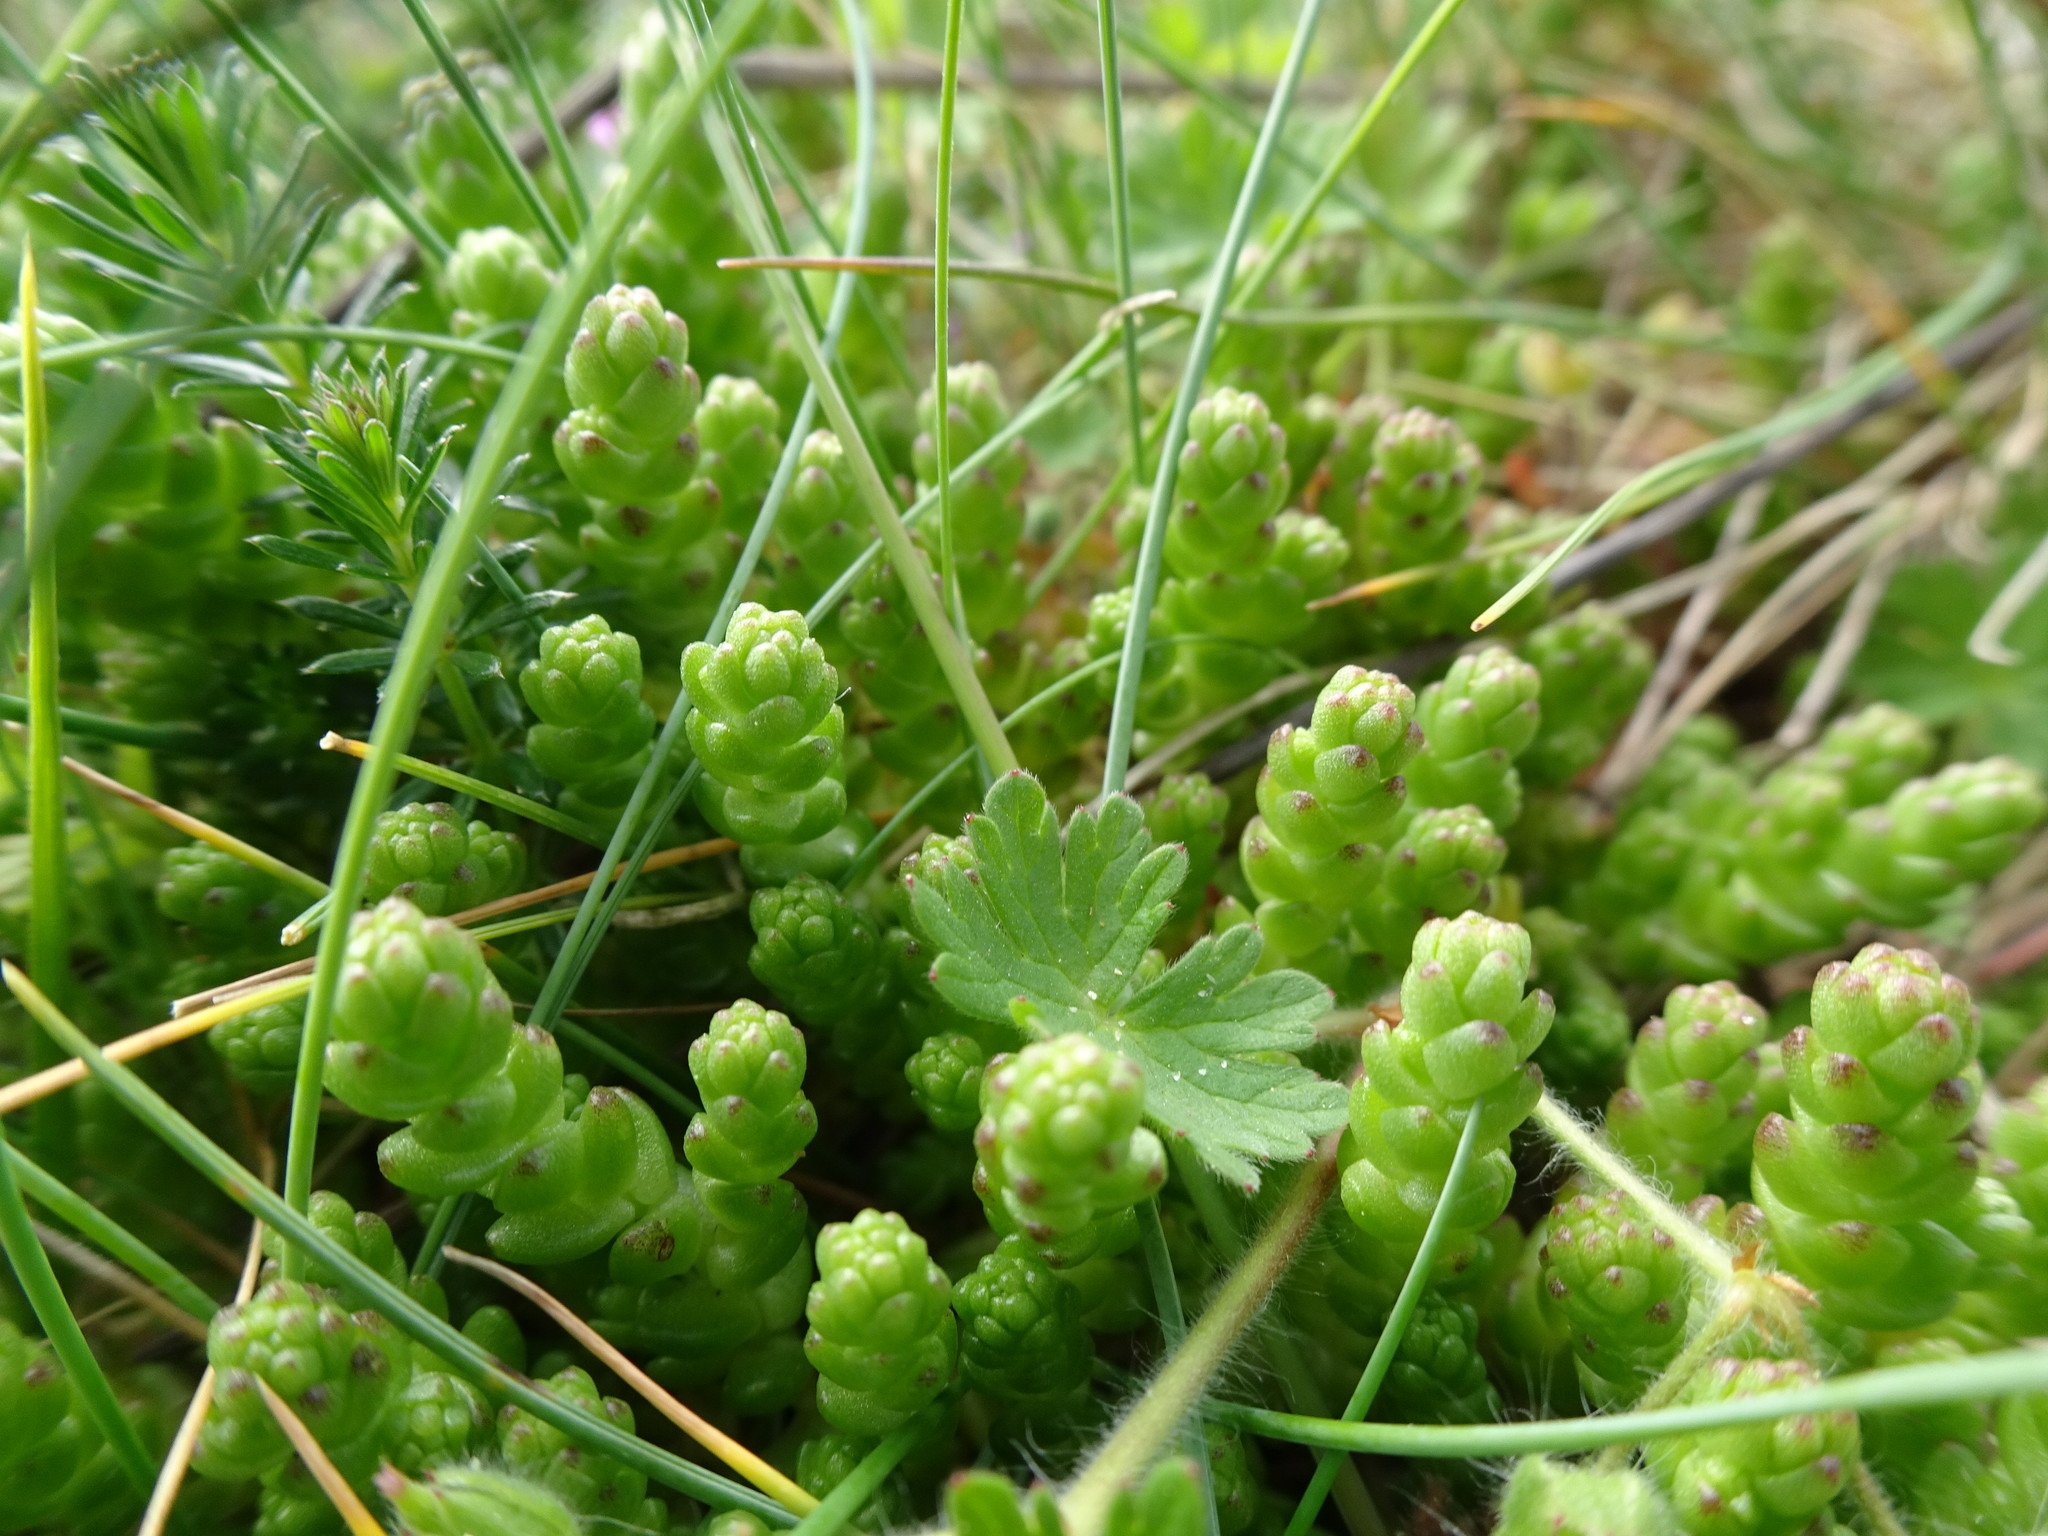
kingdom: Plantae
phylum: Tracheophyta
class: Magnoliopsida
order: Saxifragales
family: Crassulaceae
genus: Sedum
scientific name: Sedum acre
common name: Biting stonecrop
